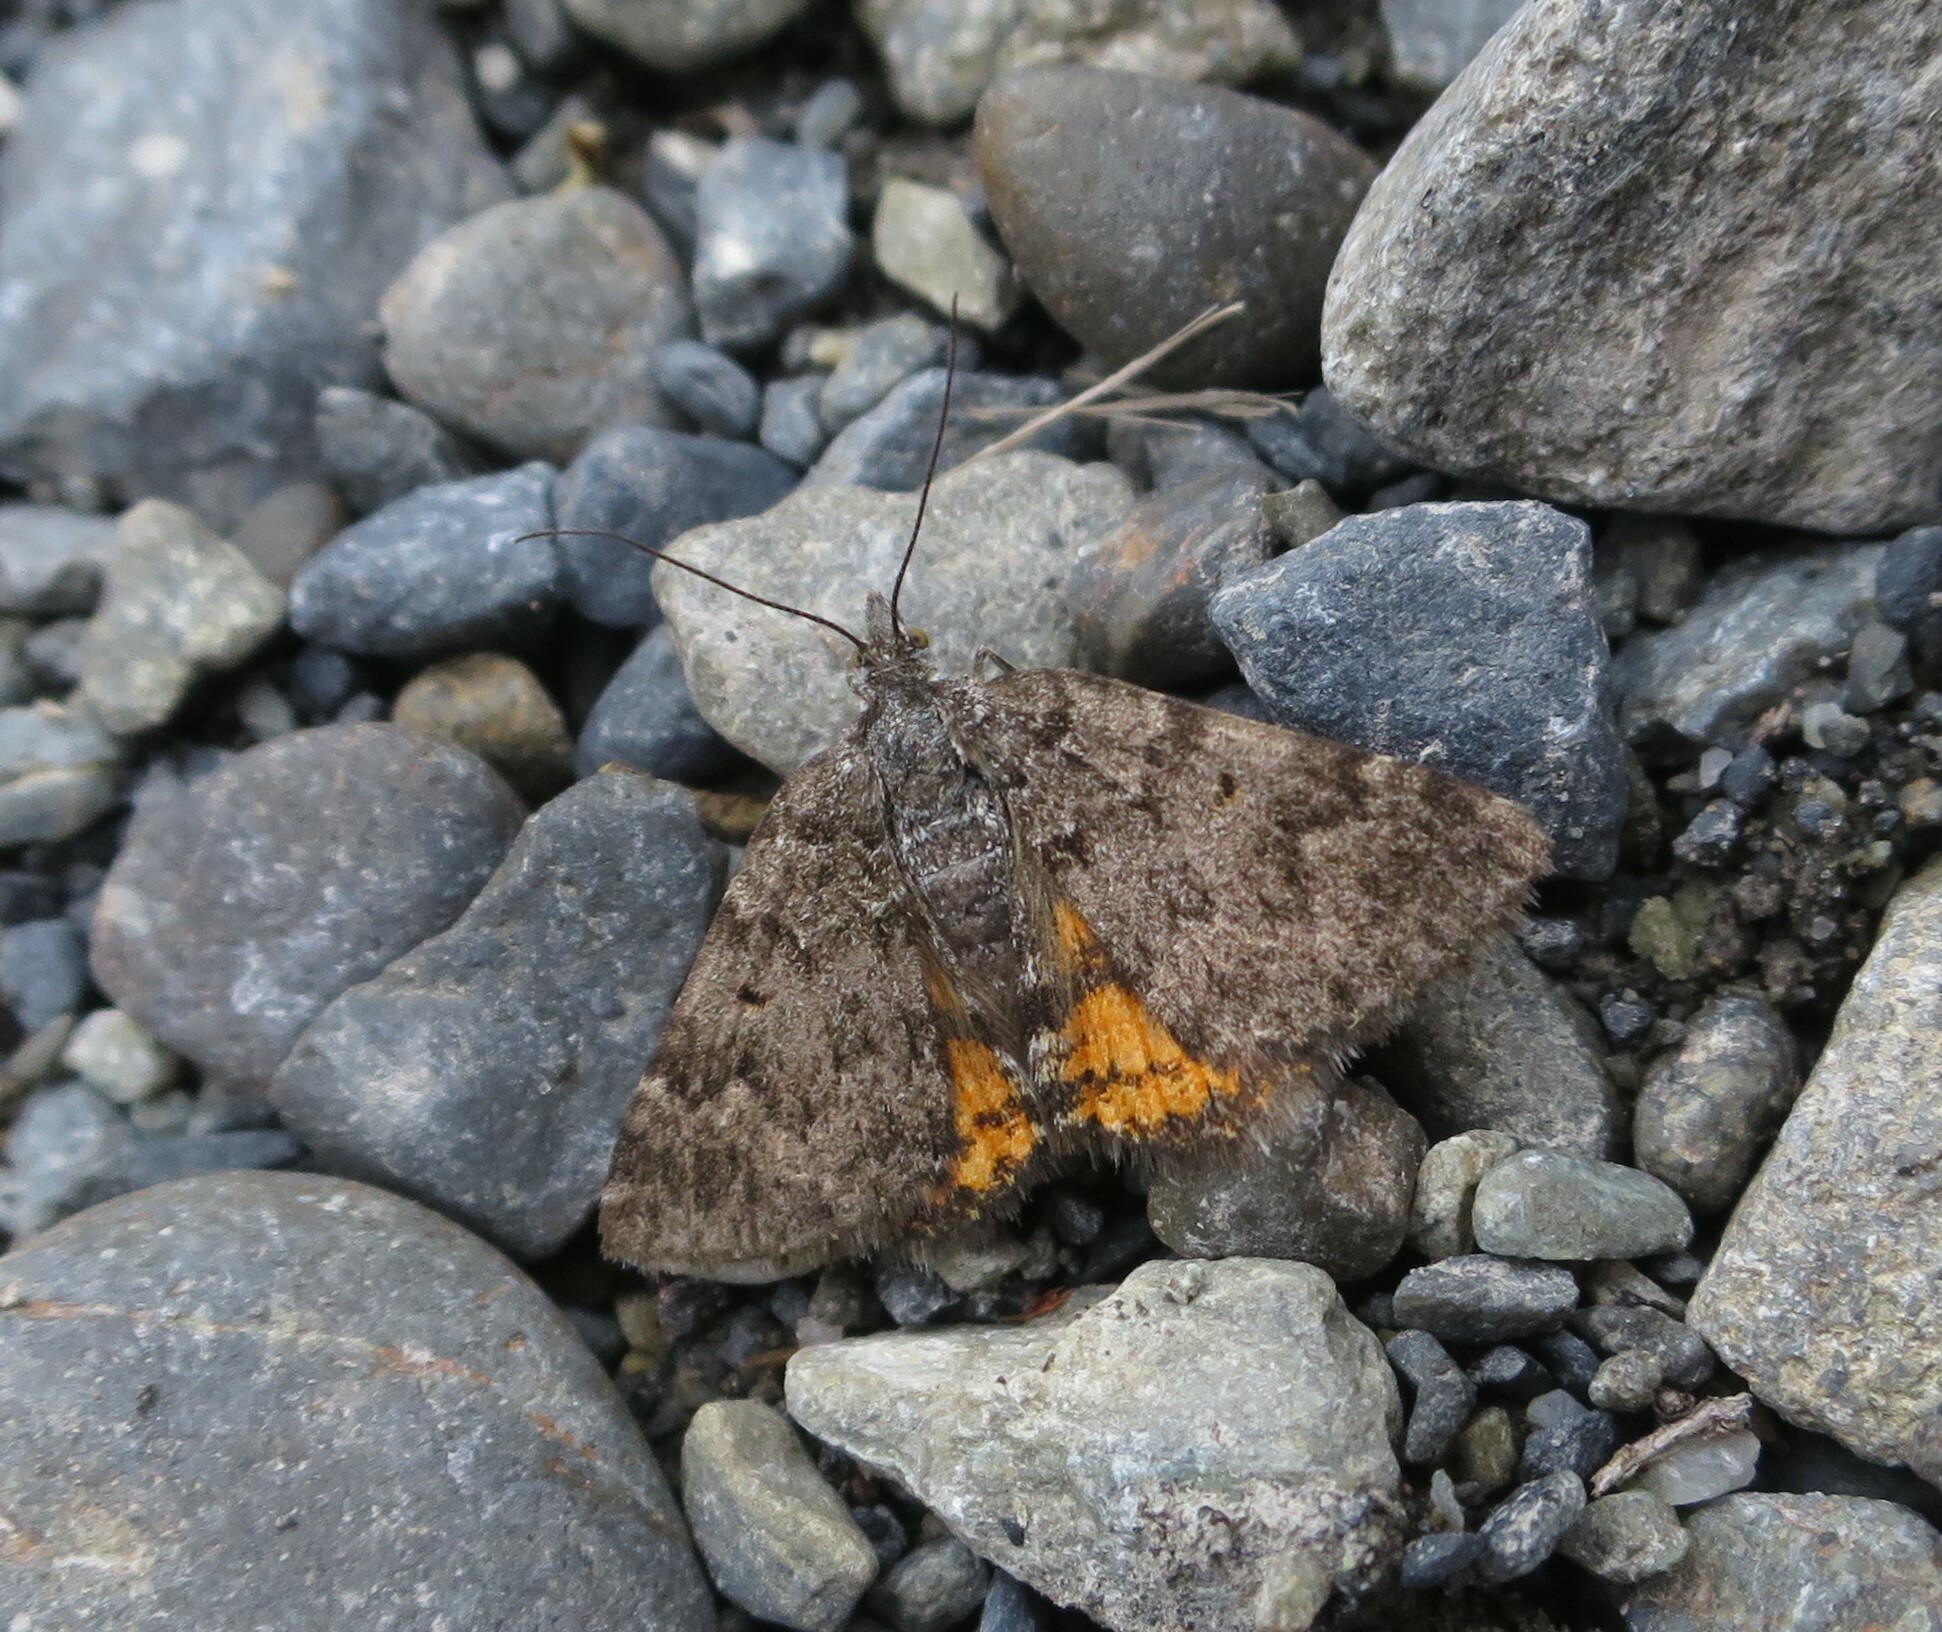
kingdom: Animalia
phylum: Arthropoda
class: Insecta
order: Lepidoptera
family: Geometridae
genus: Paranotoreas
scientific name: Paranotoreas brephosata
